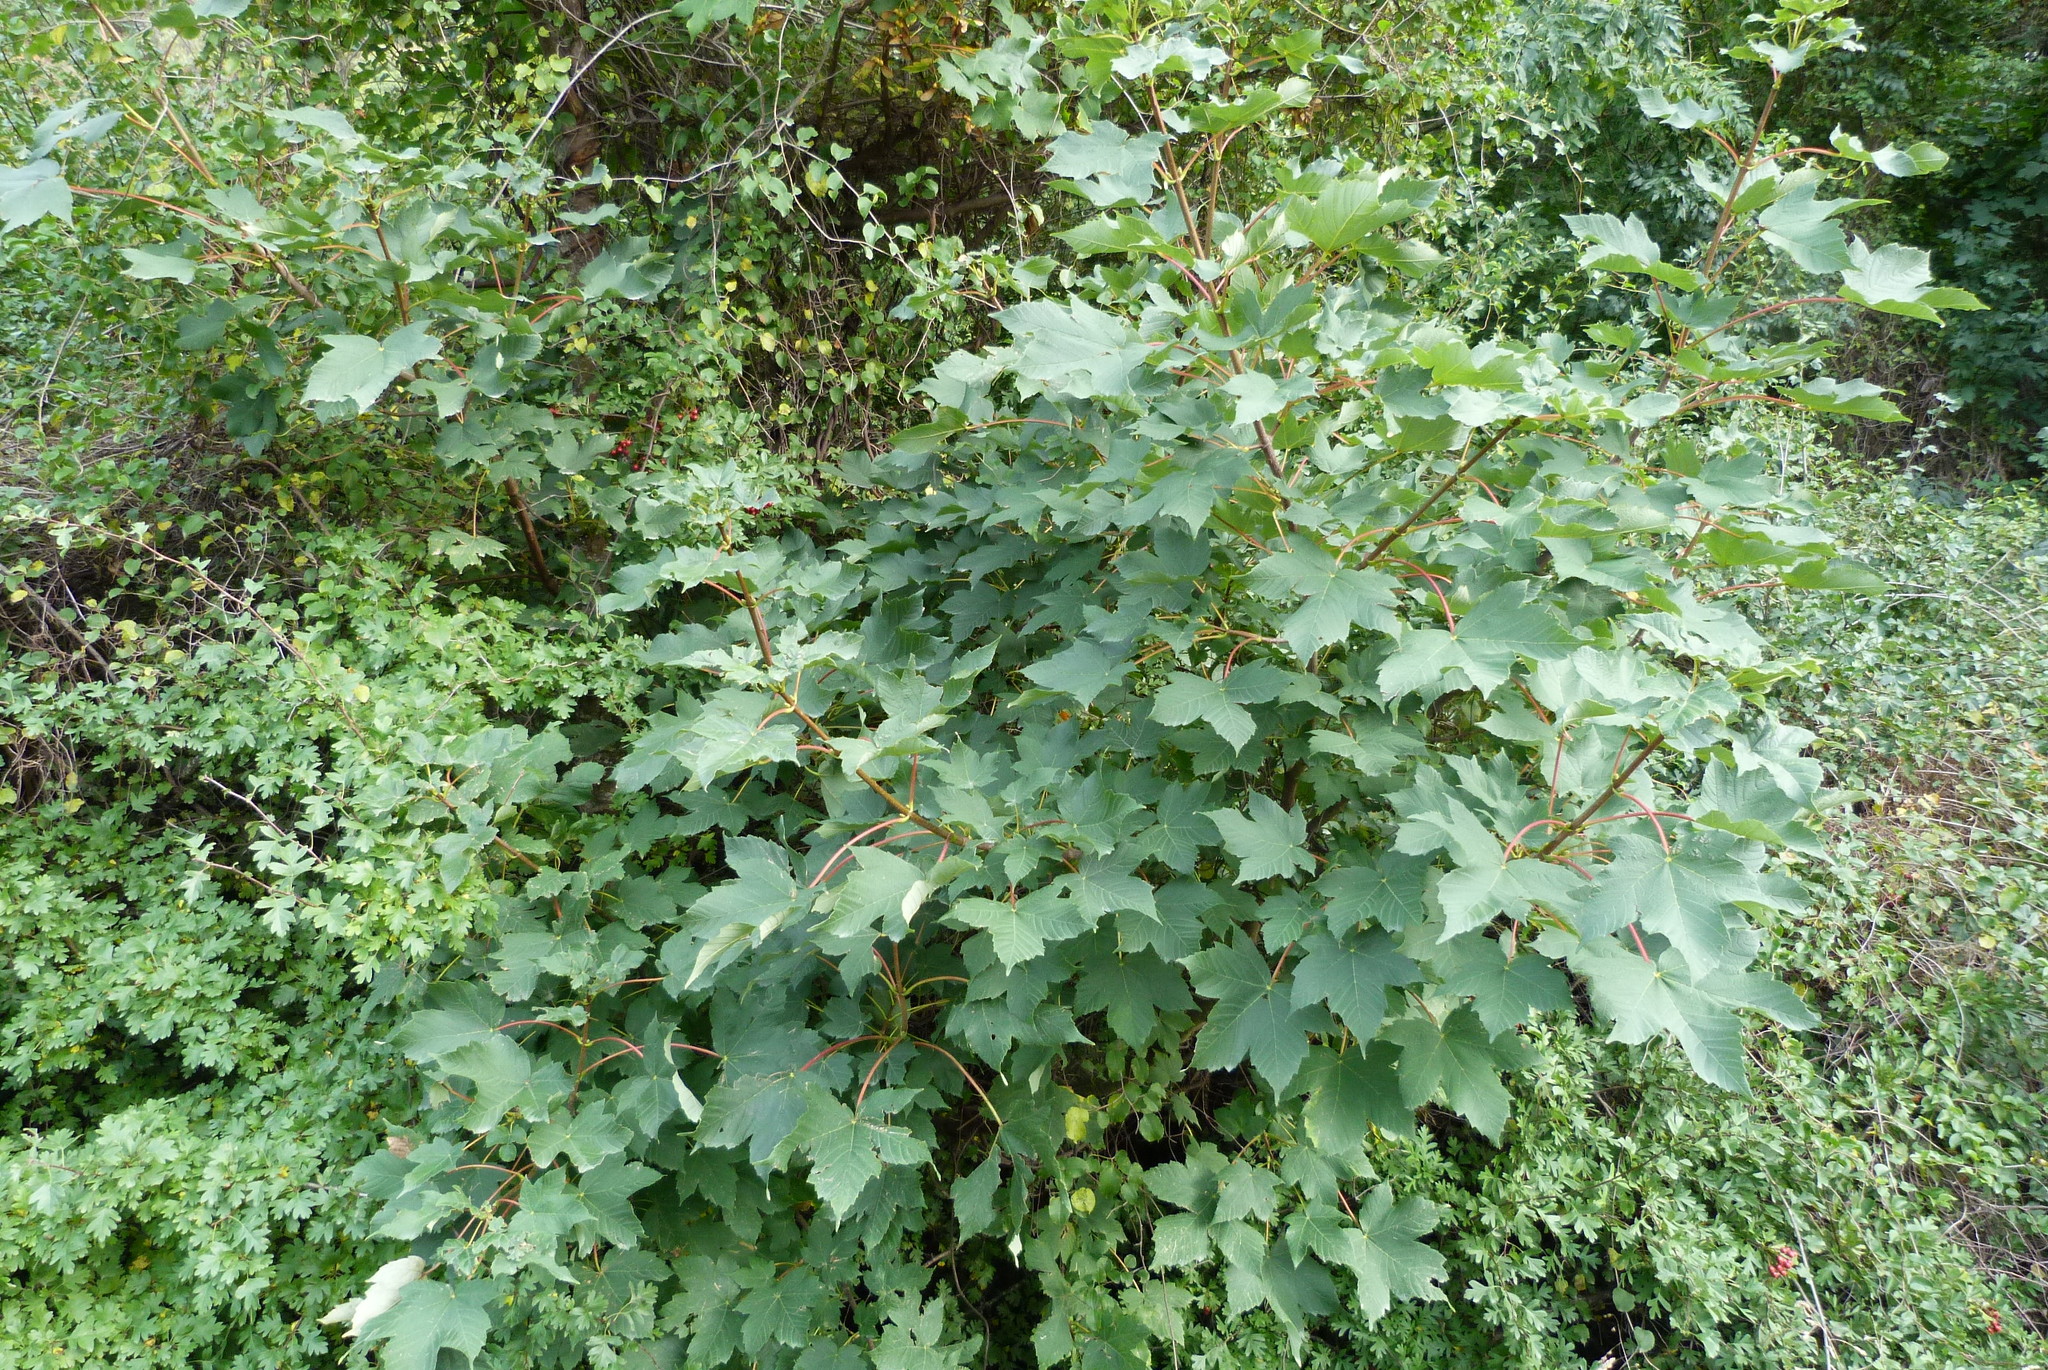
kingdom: Plantae
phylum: Tracheophyta
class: Magnoliopsida
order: Sapindales
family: Sapindaceae
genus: Acer
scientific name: Acer pseudoplatanus
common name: Sycamore
